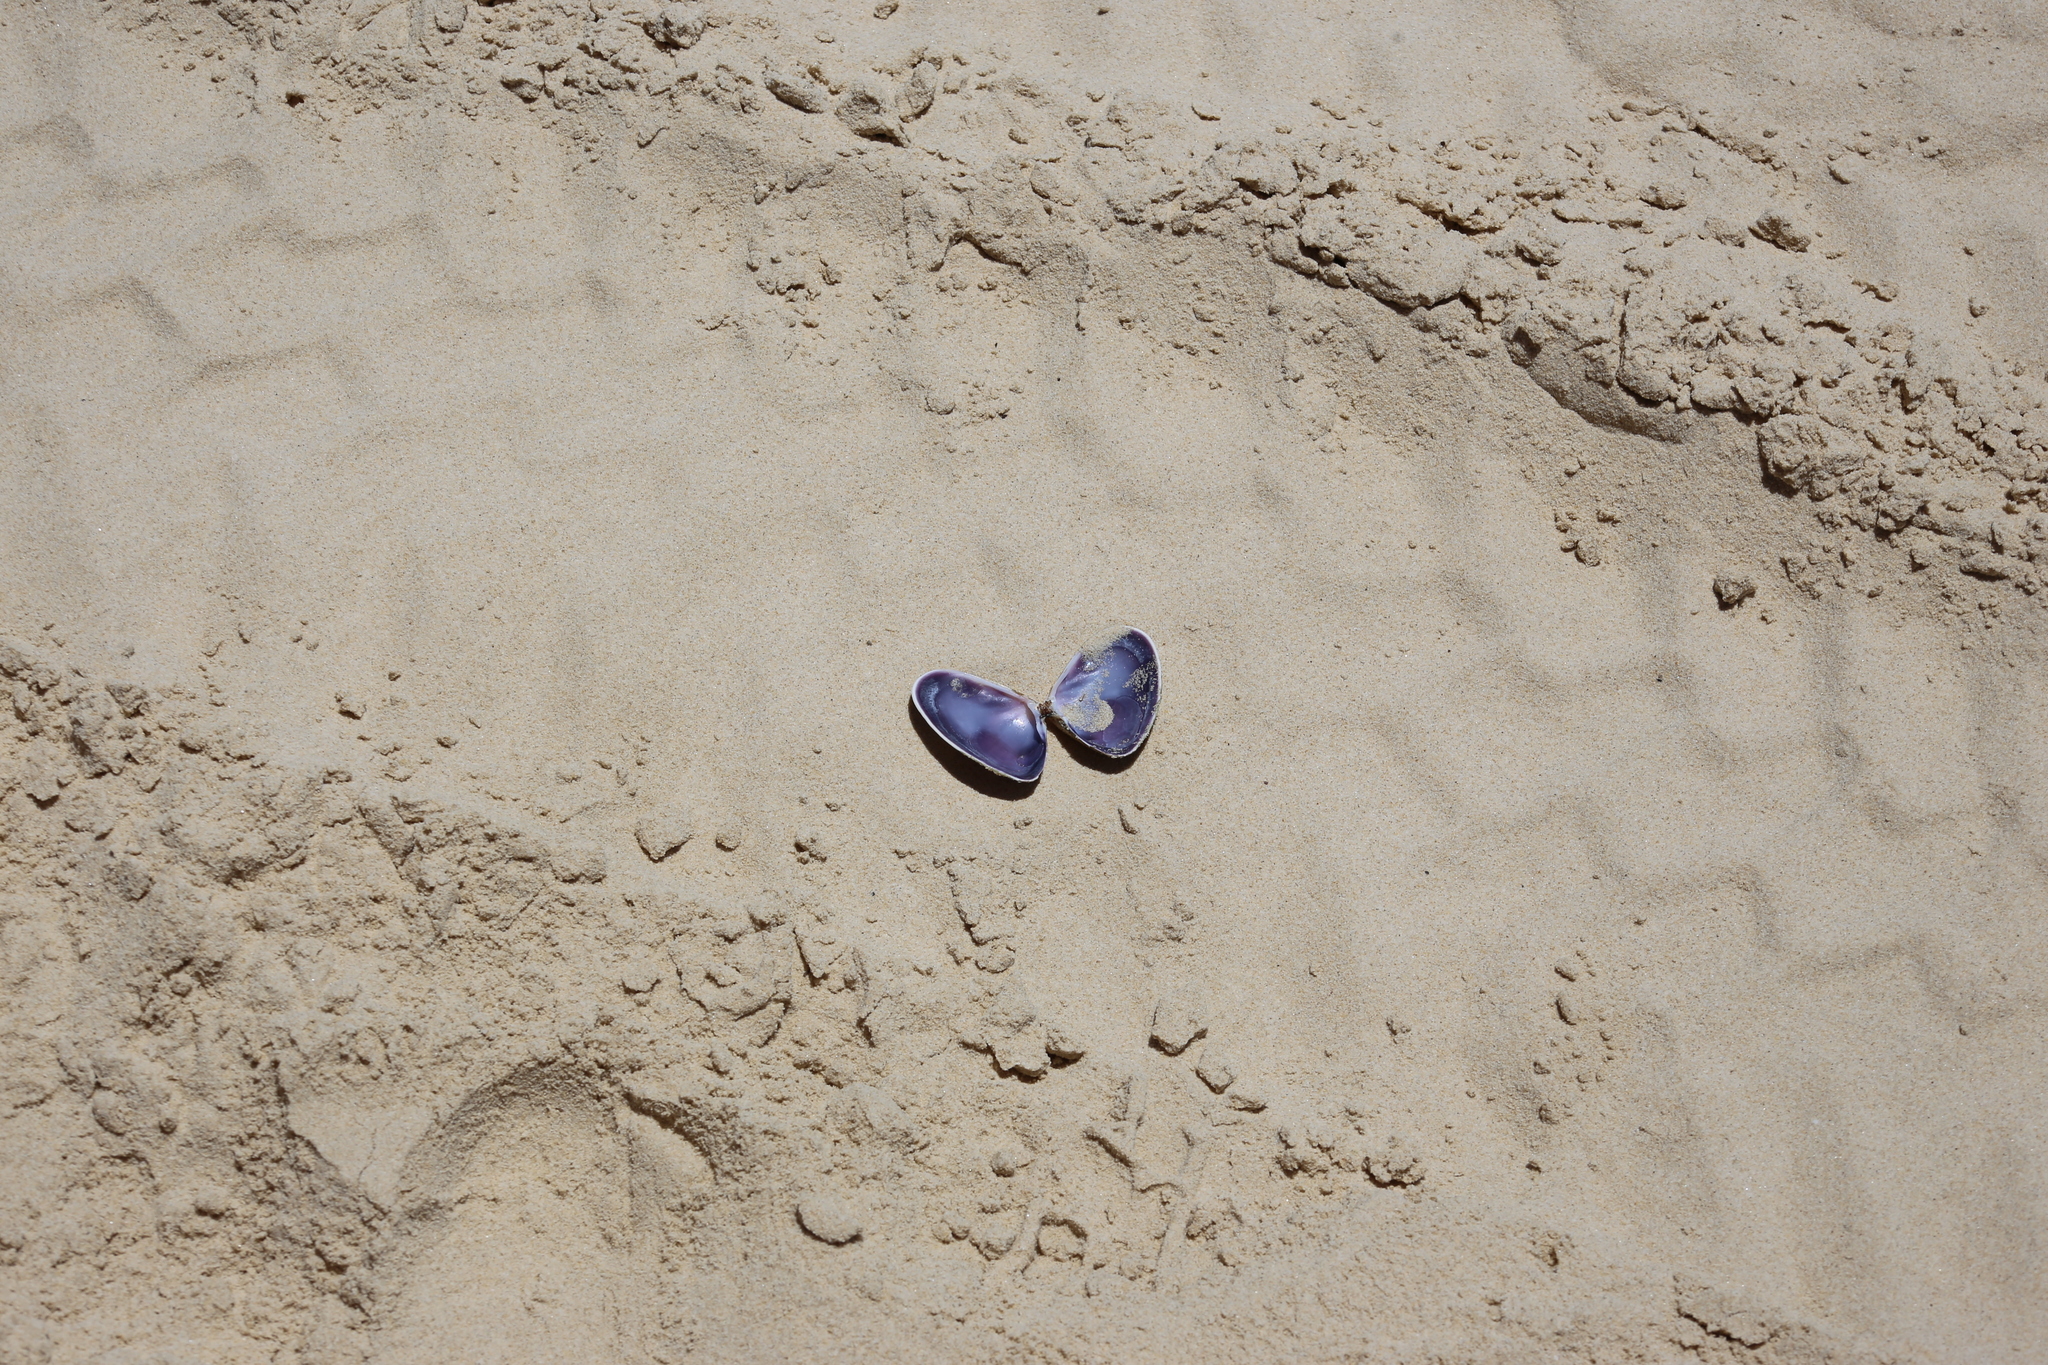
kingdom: Animalia
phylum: Mollusca
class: Bivalvia
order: Cardiida
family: Donacidae
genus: Latona
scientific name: Latona deltoides
